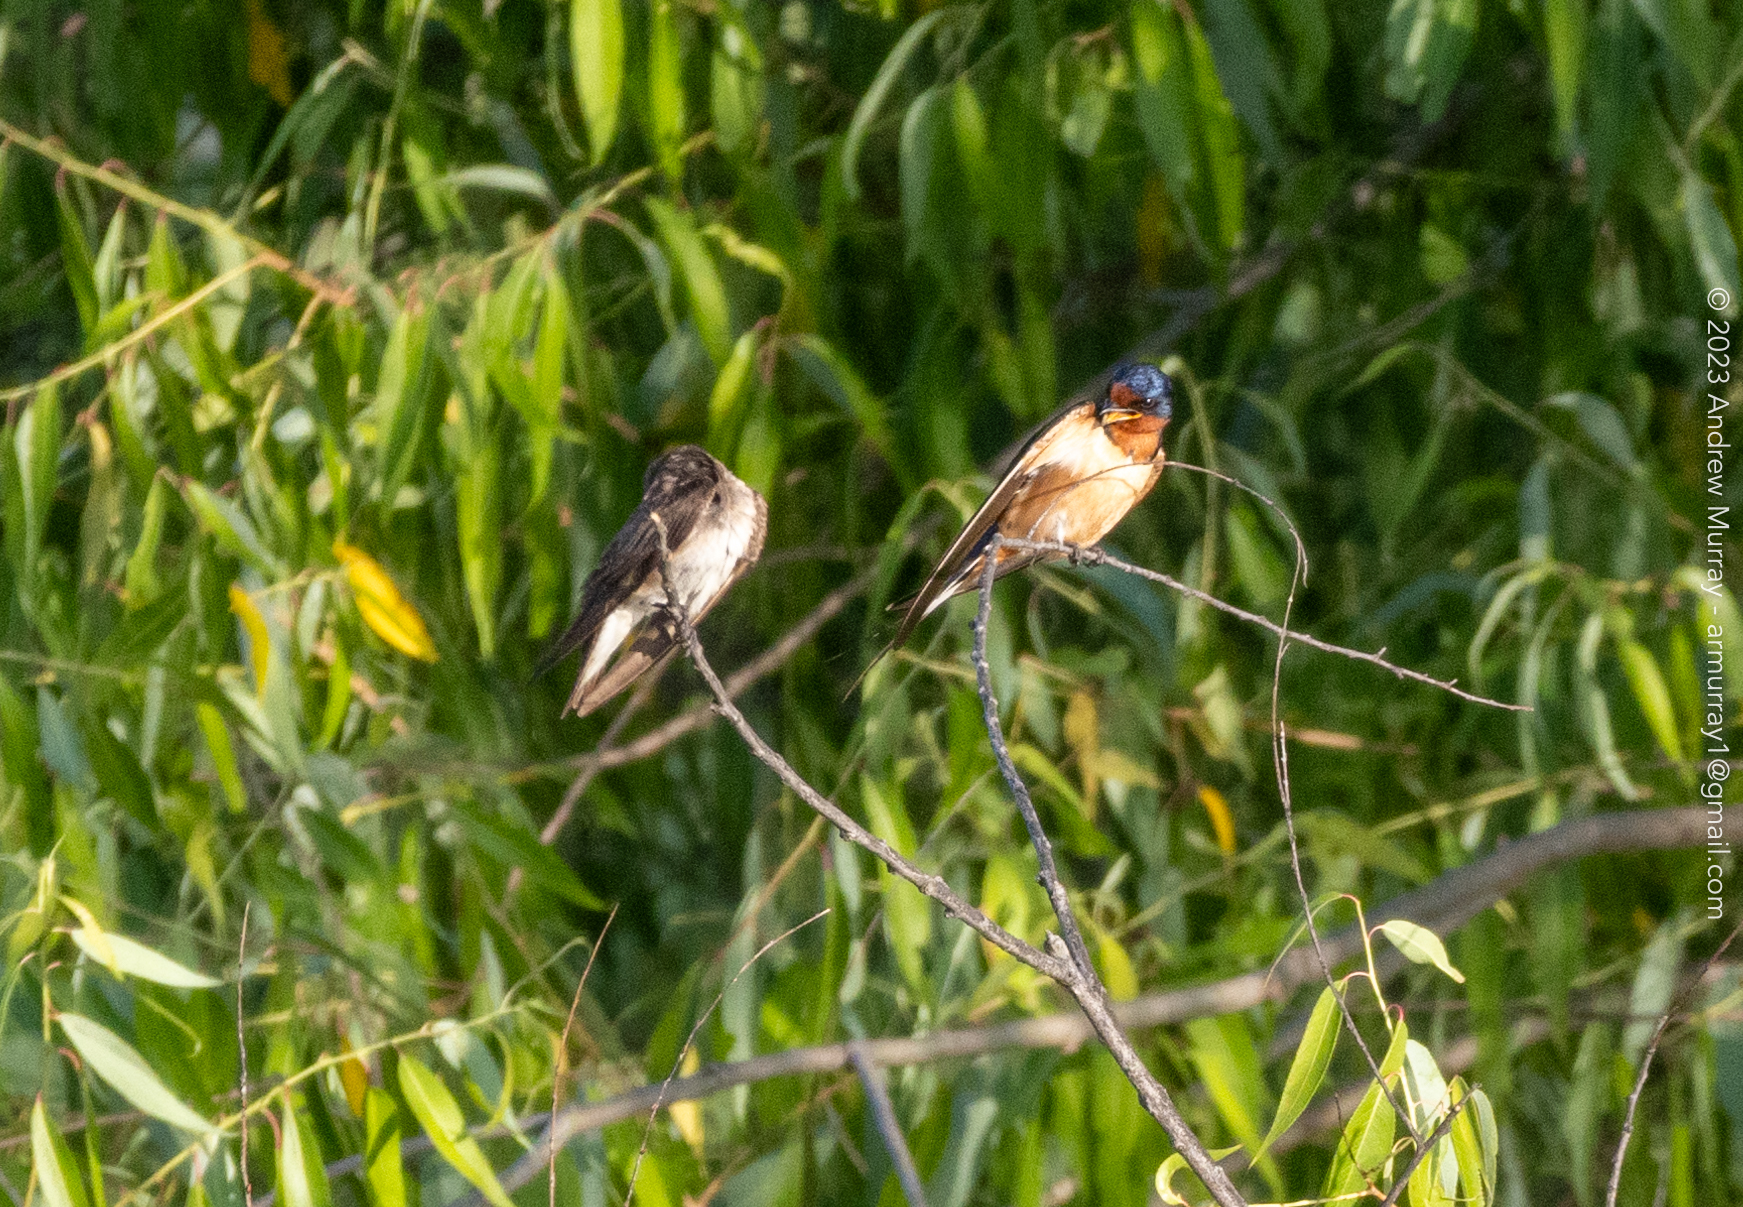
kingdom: Animalia
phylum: Chordata
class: Aves
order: Passeriformes
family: Hirundinidae
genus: Hirundo
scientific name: Hirundo rustica
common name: Barn swallow
